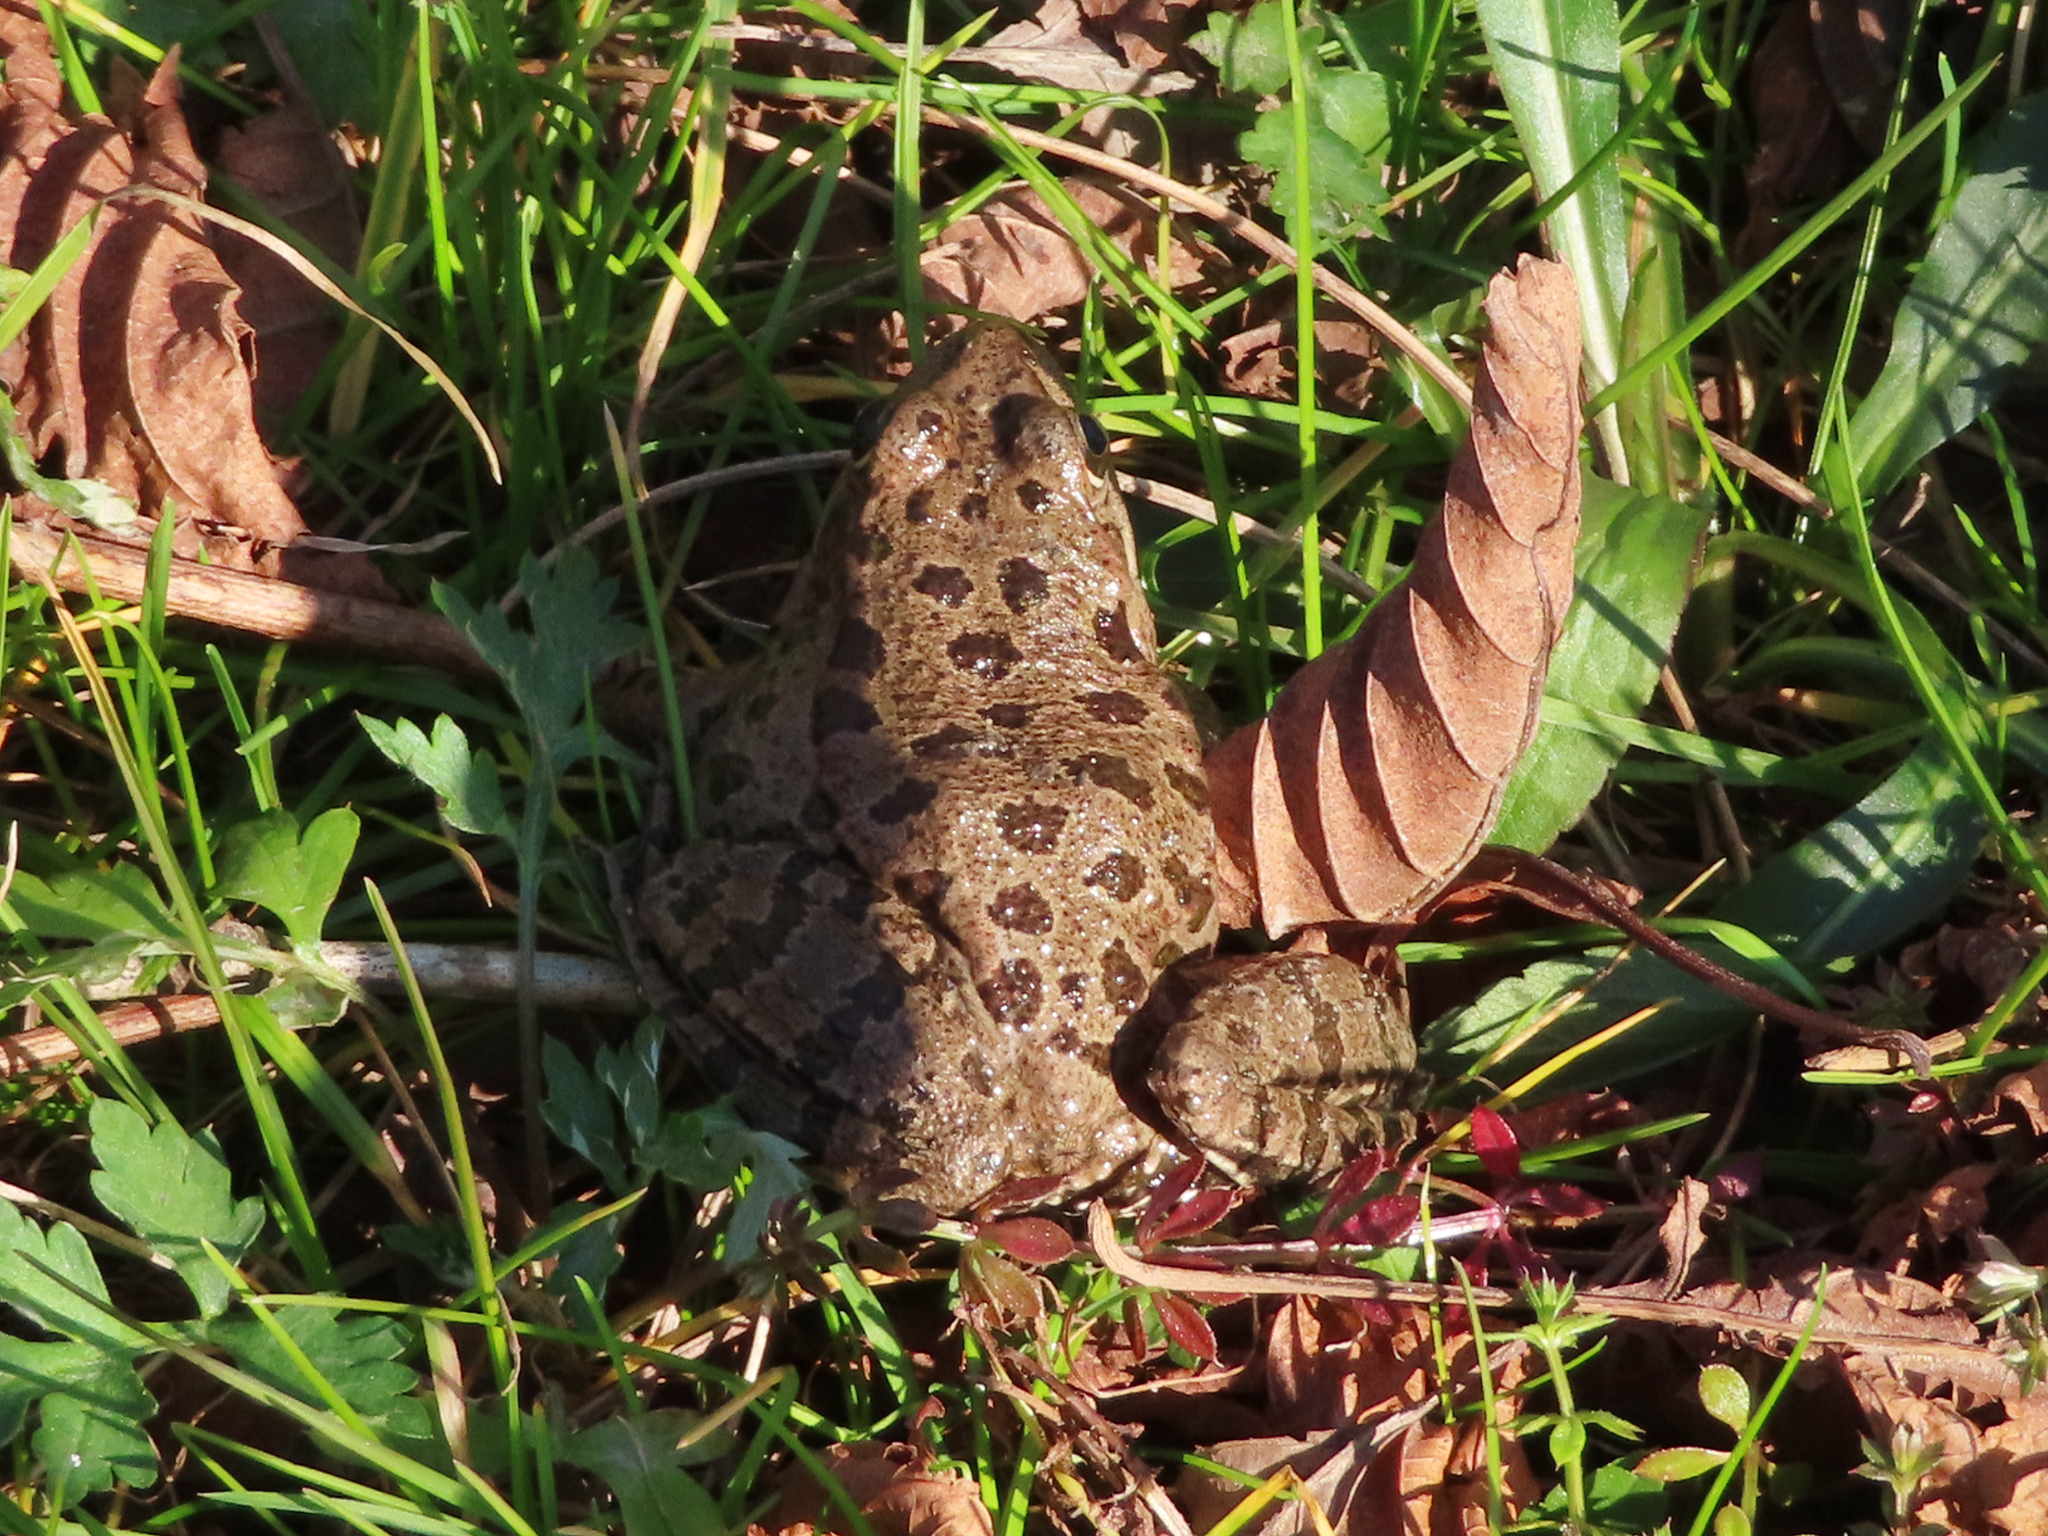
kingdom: Animalia
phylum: Chordata
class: Amphibia
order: Anura
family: Ranidae
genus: Pelophylax
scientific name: Pelophylax ridibundus
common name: Marsh frog
